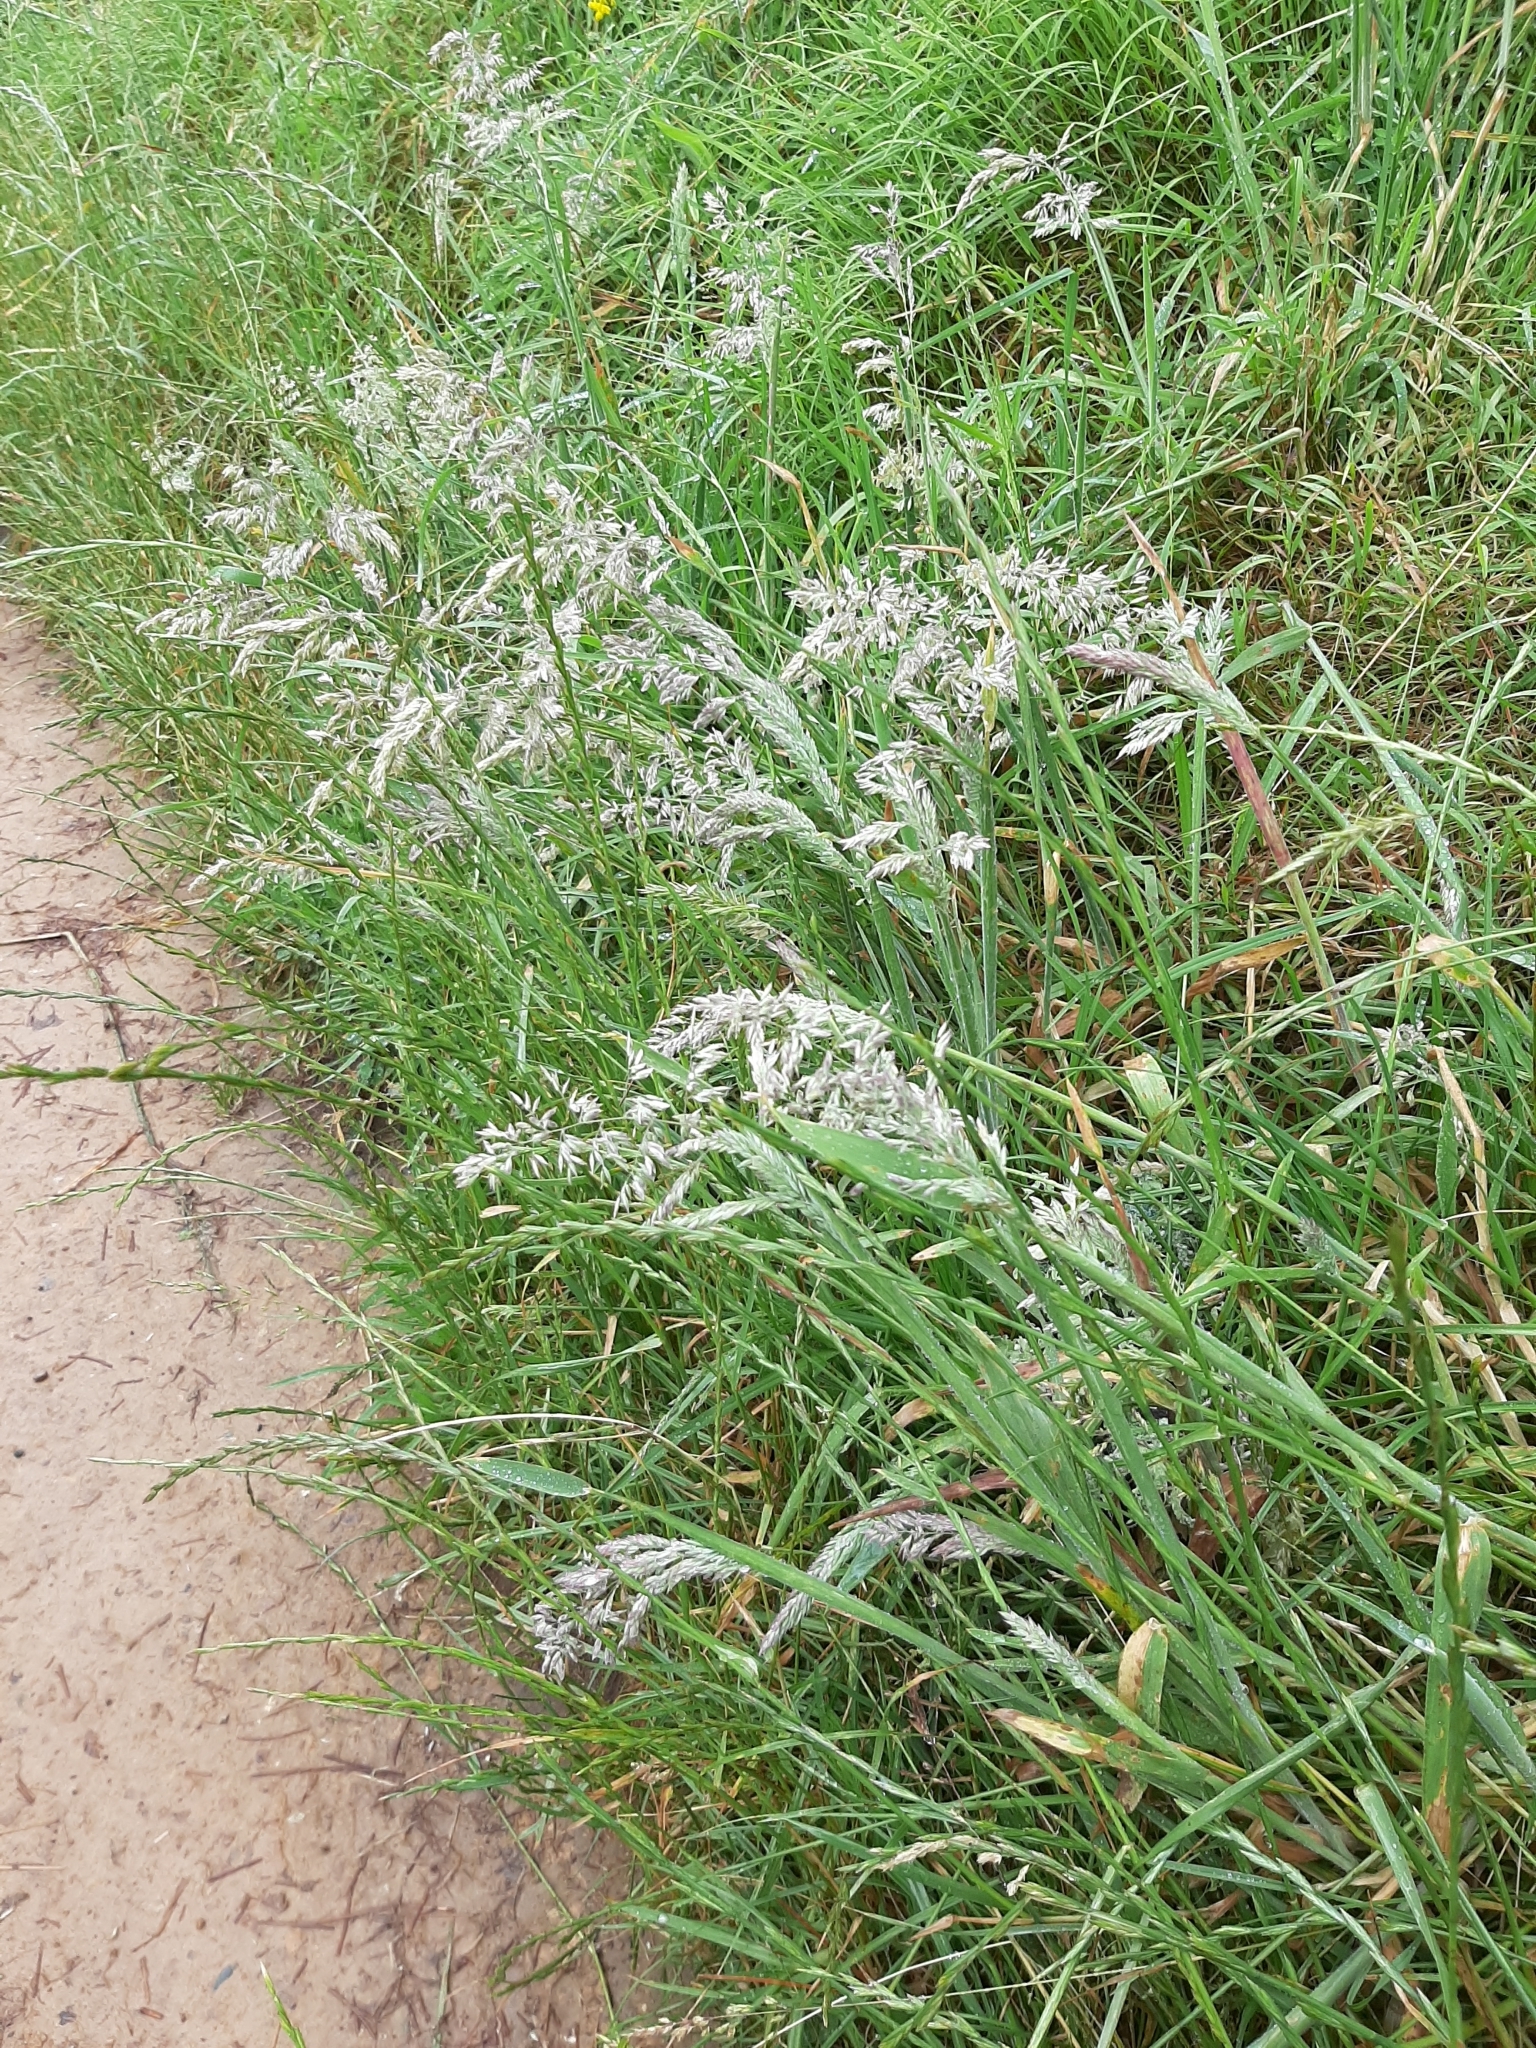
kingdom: Plantae
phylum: Tracheophyta
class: Liliopsida
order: Poales
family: Poaceae
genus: Holcus
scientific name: Holcus lanatus
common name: Yorkshire-fog
